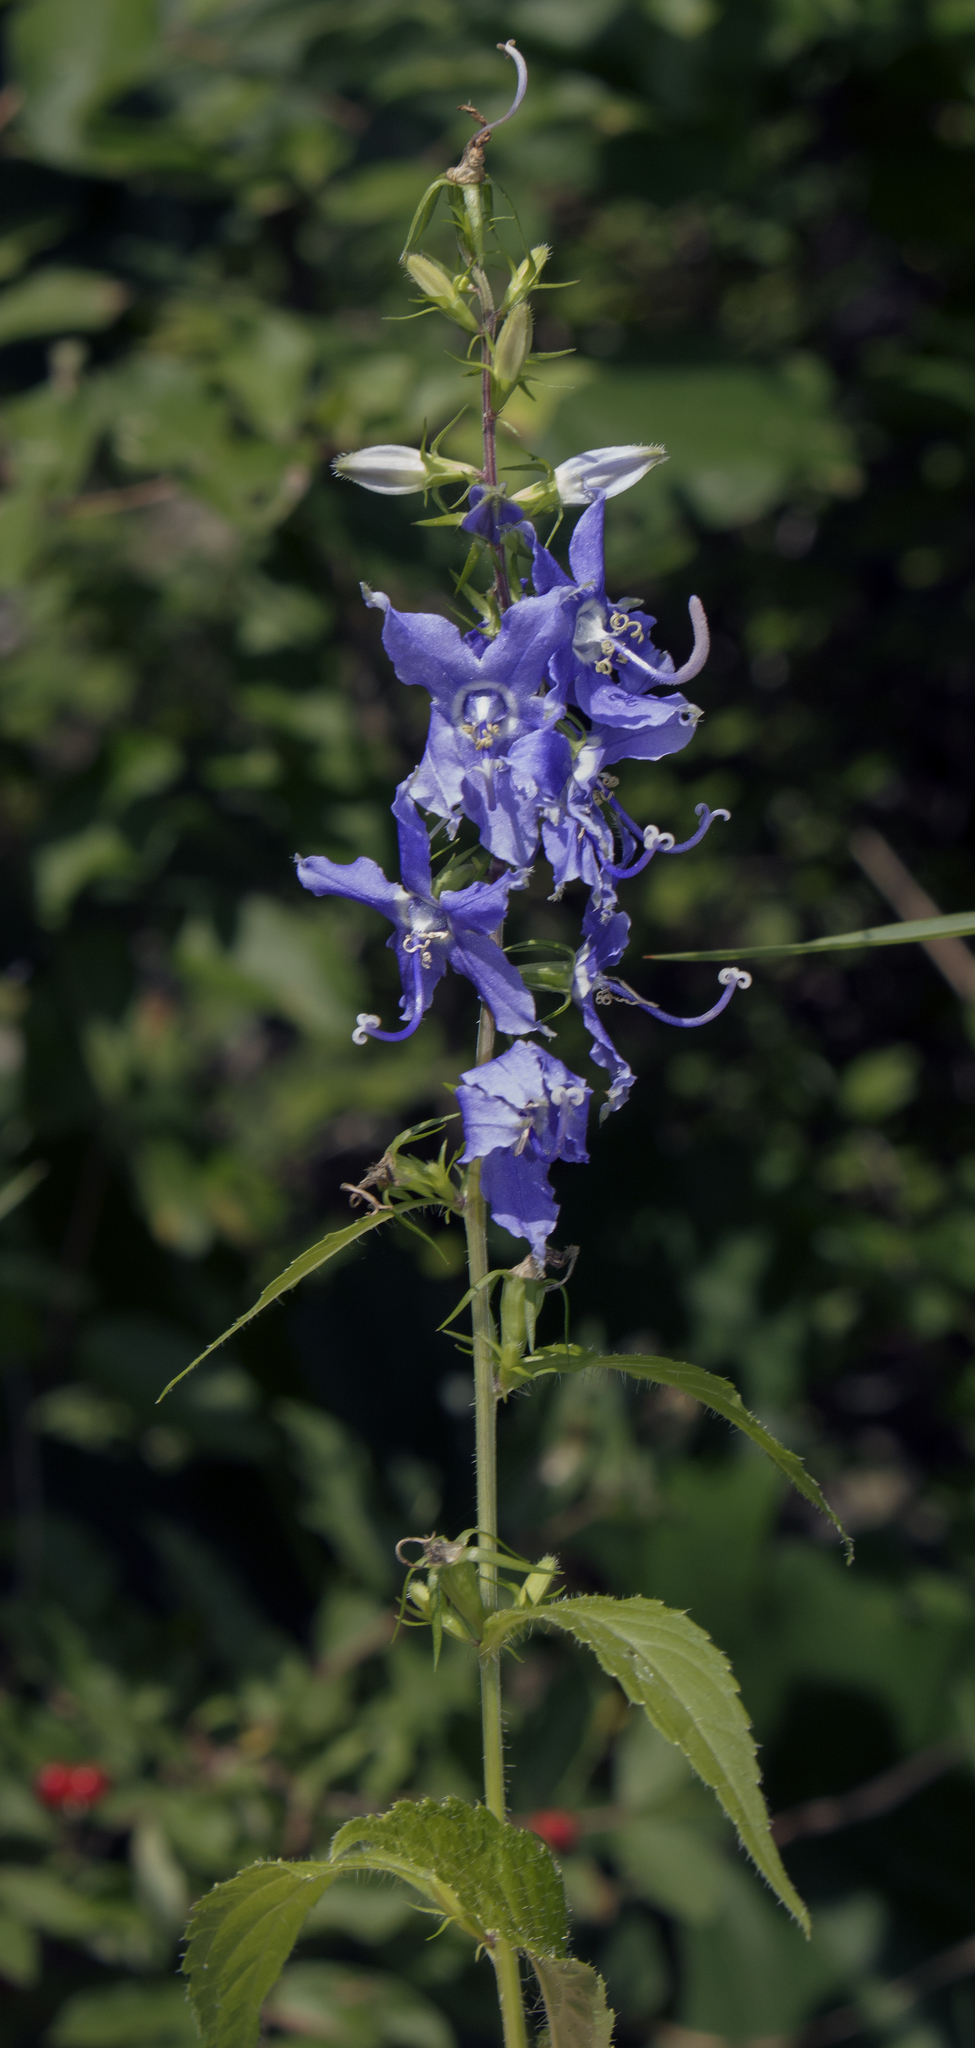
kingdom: Plantae
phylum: Tracheophyta
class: Magnoliopsida
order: Asterales
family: Campanulaceae
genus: Campanulastrum
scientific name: Campanulastrum americanum
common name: American bellflower
